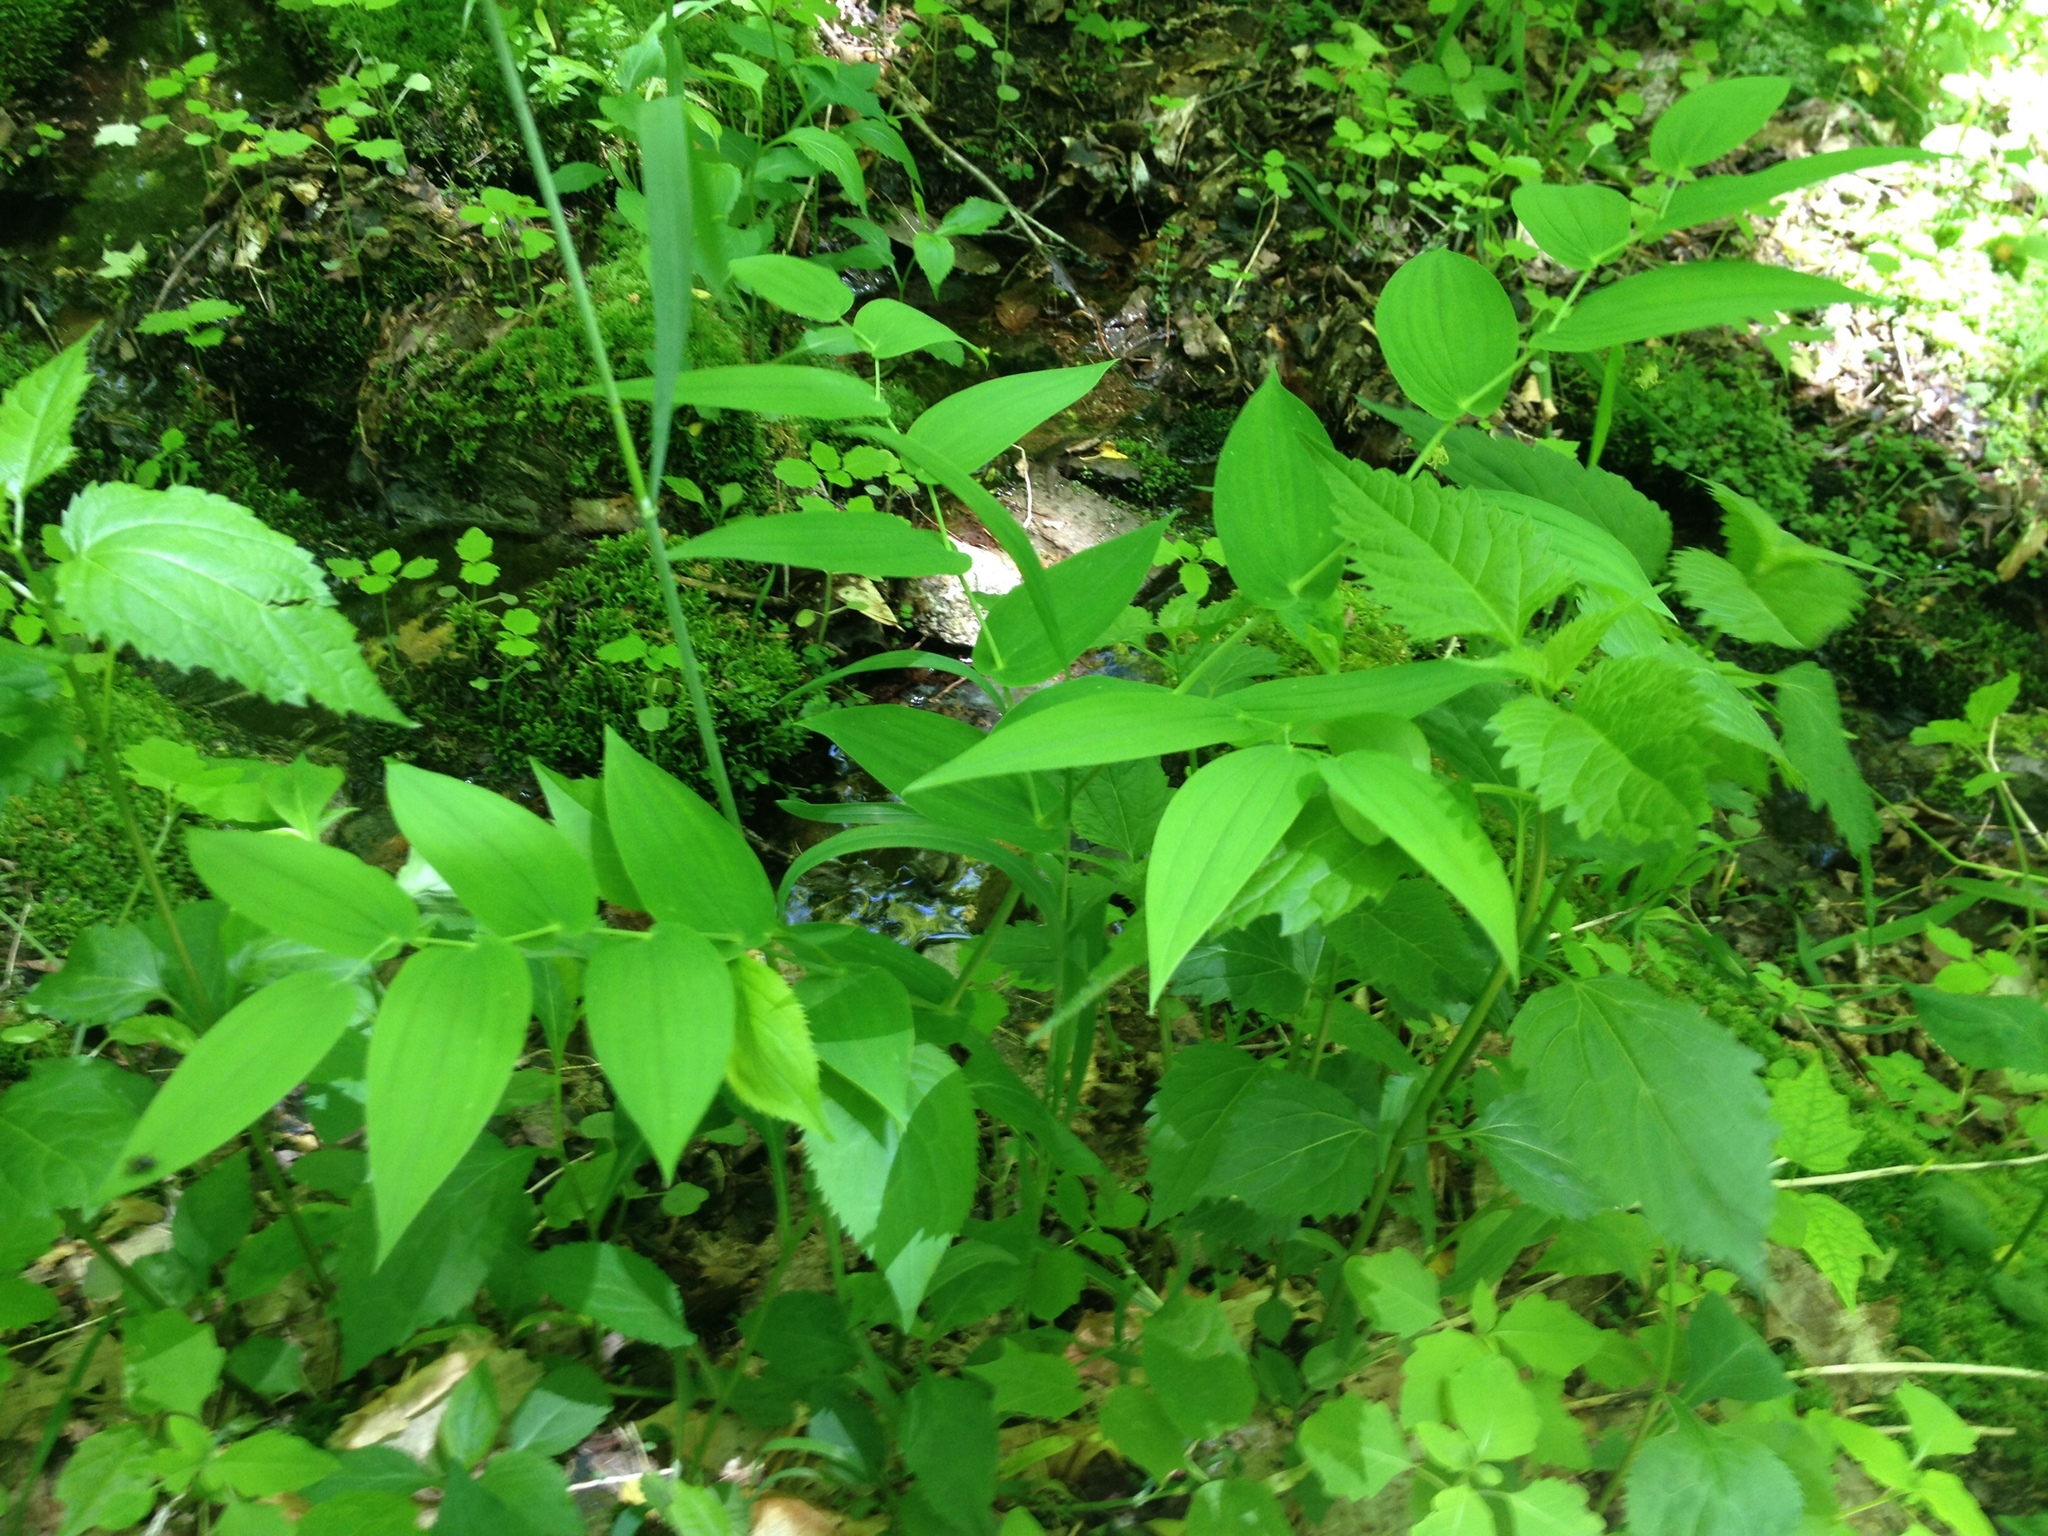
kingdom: Plantae
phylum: Tracheophyta
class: Liliopsida
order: Liliales
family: Liliaceae
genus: Streptopus
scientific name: Streptopus amplexifolius
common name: Clasp twisted stalk
